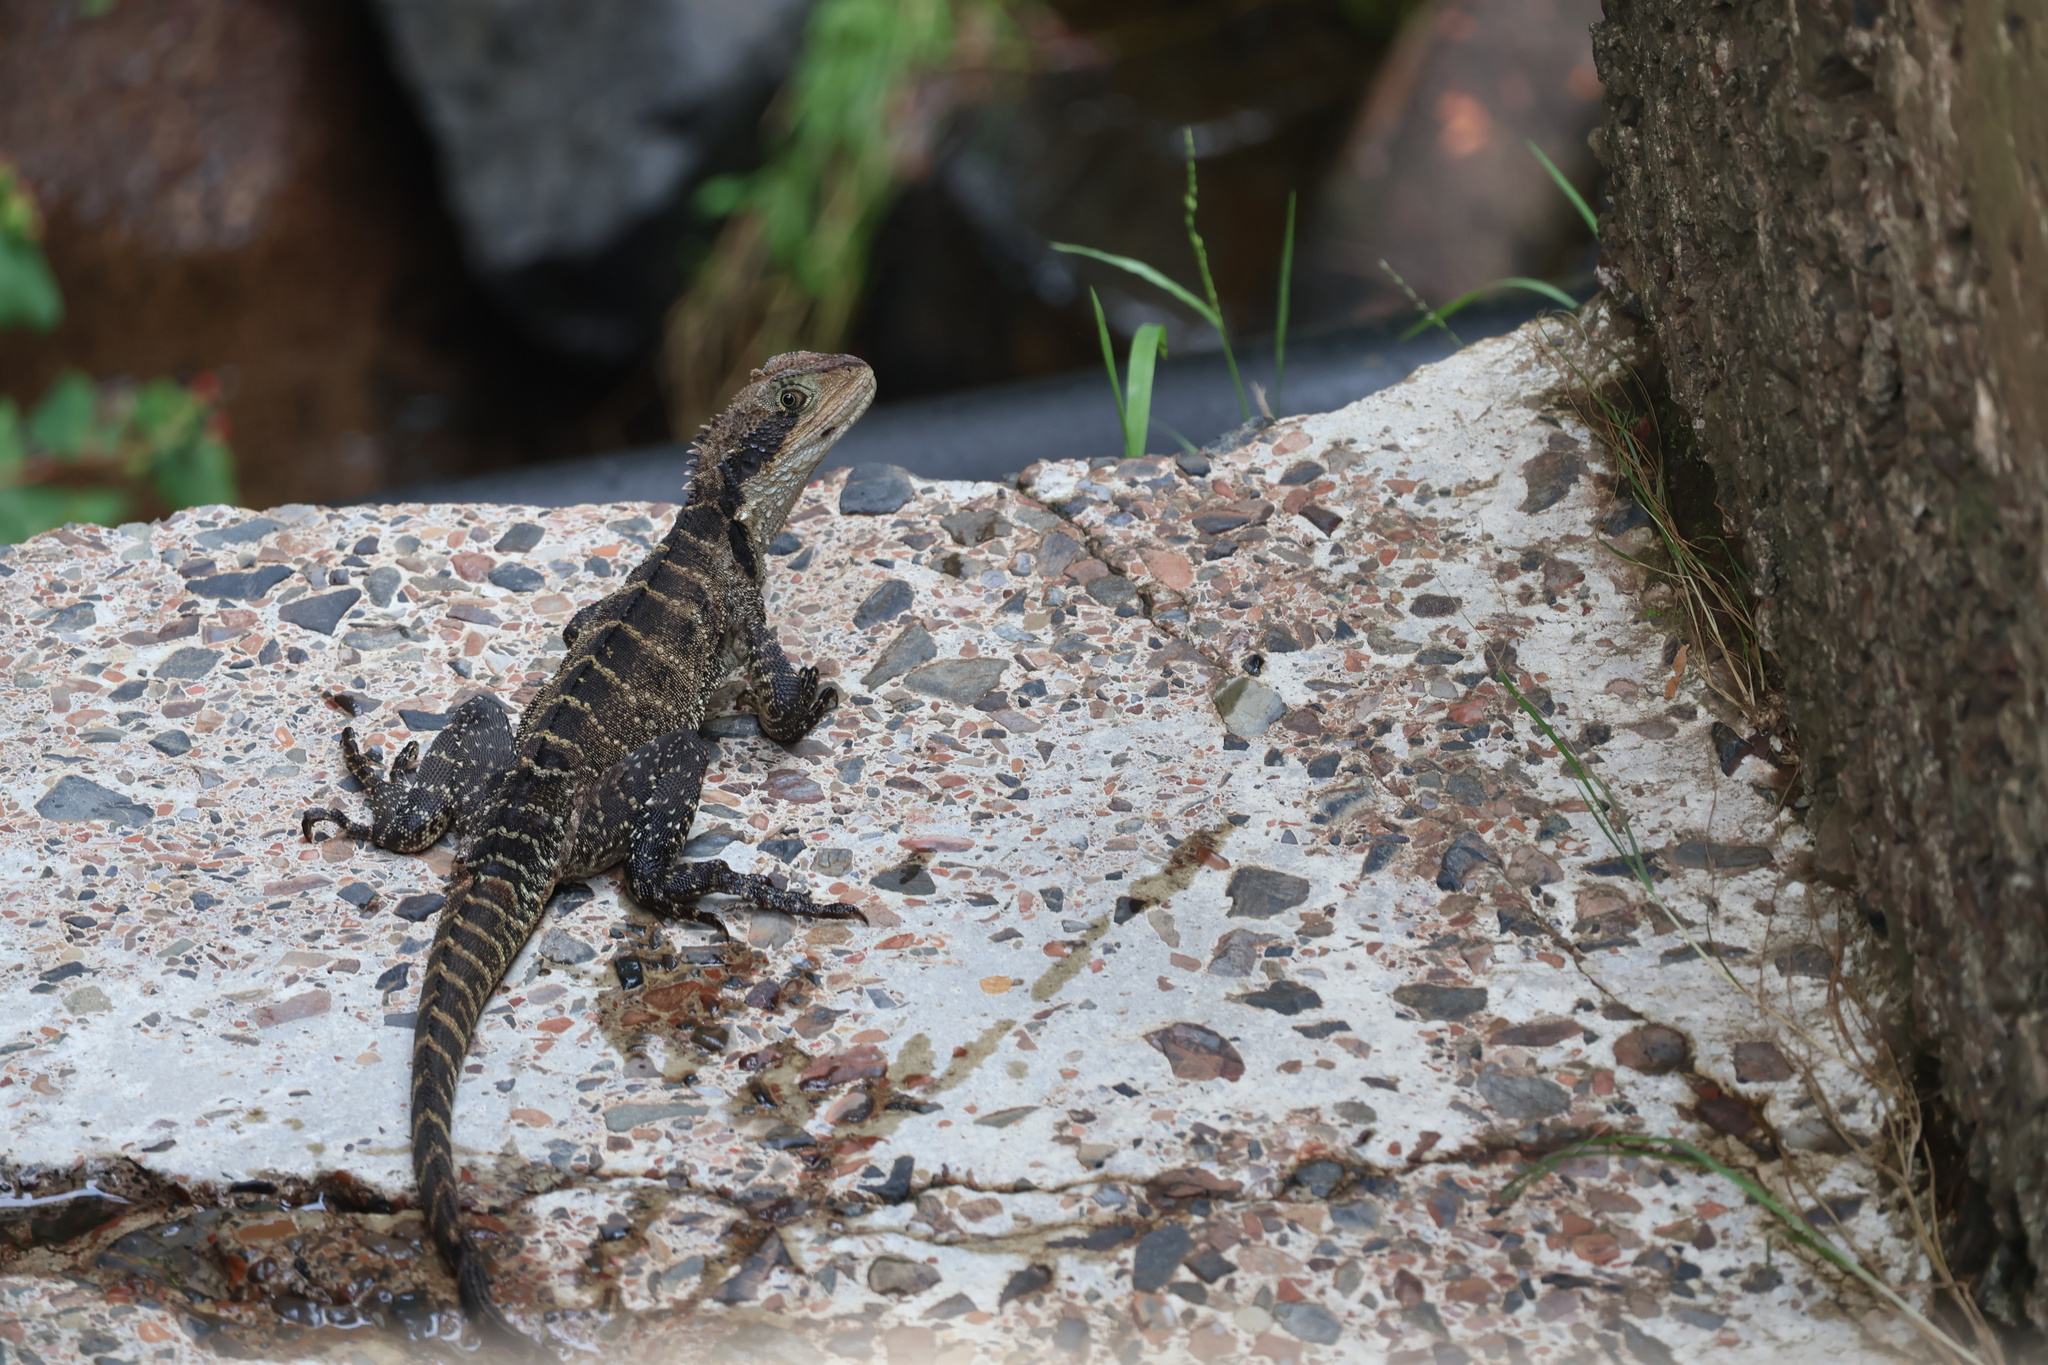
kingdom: Animalia
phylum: Chordata
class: Squamata
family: Agamidae
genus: Intellagama
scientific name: Intellagama lesueurii
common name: Eastern water dragon
